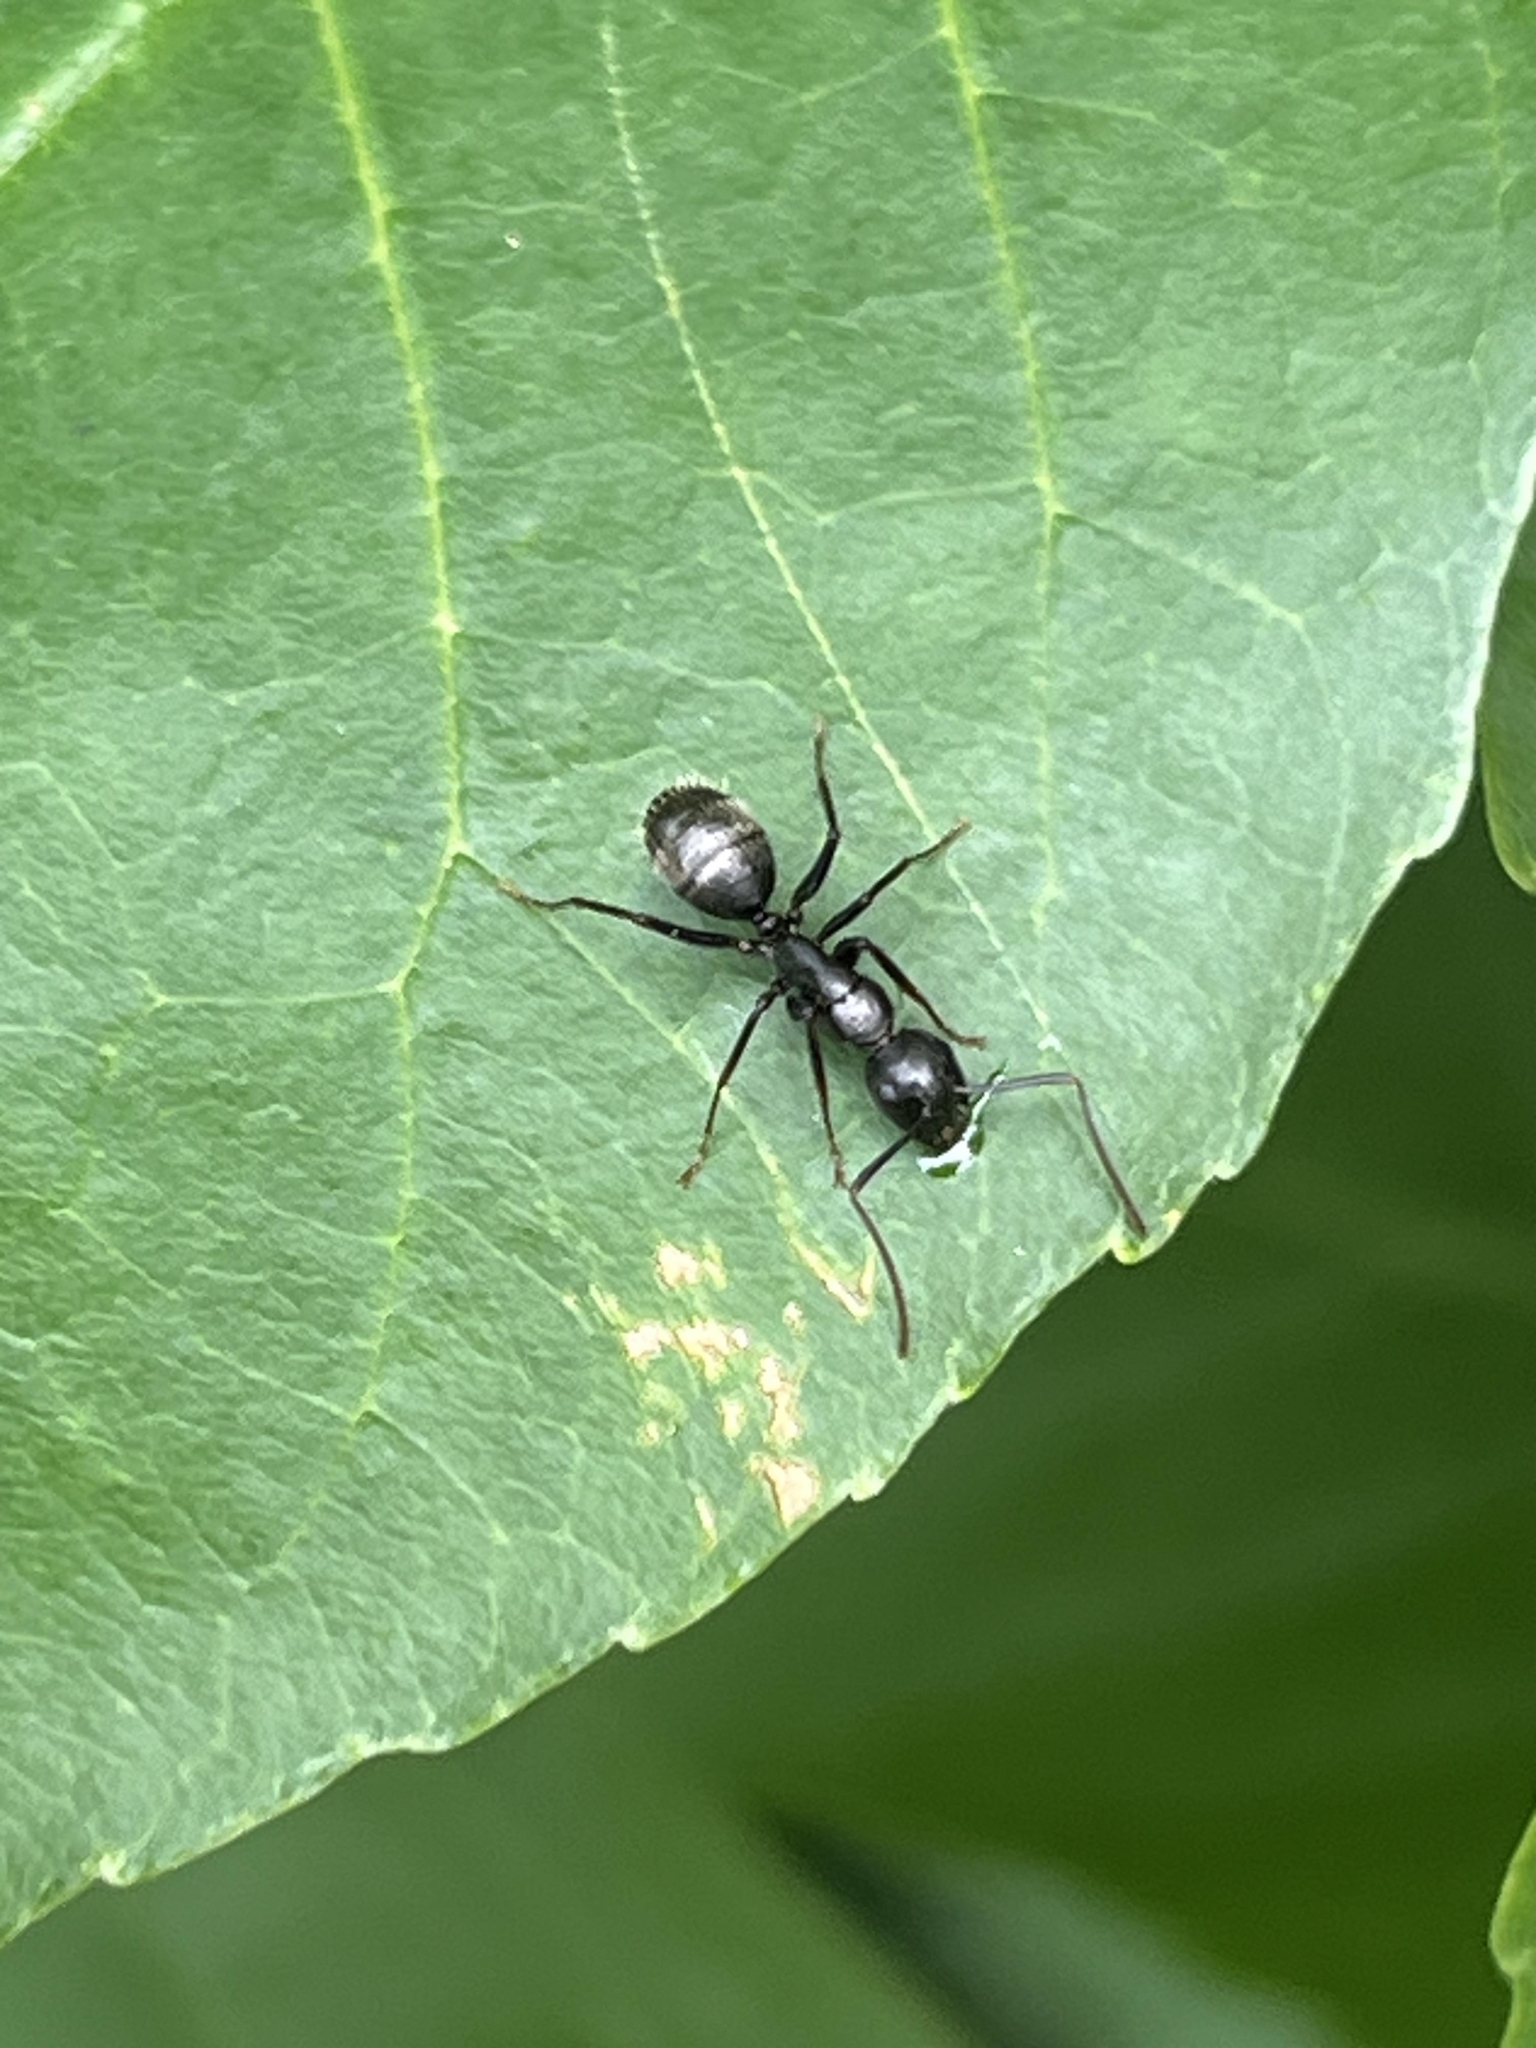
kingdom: Animalia
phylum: Arthropoda
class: Insecta
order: Hymenoptera
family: Formicidae
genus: Camponotus
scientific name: Camponotus pennsylvanicus
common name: Black carpenter ant
